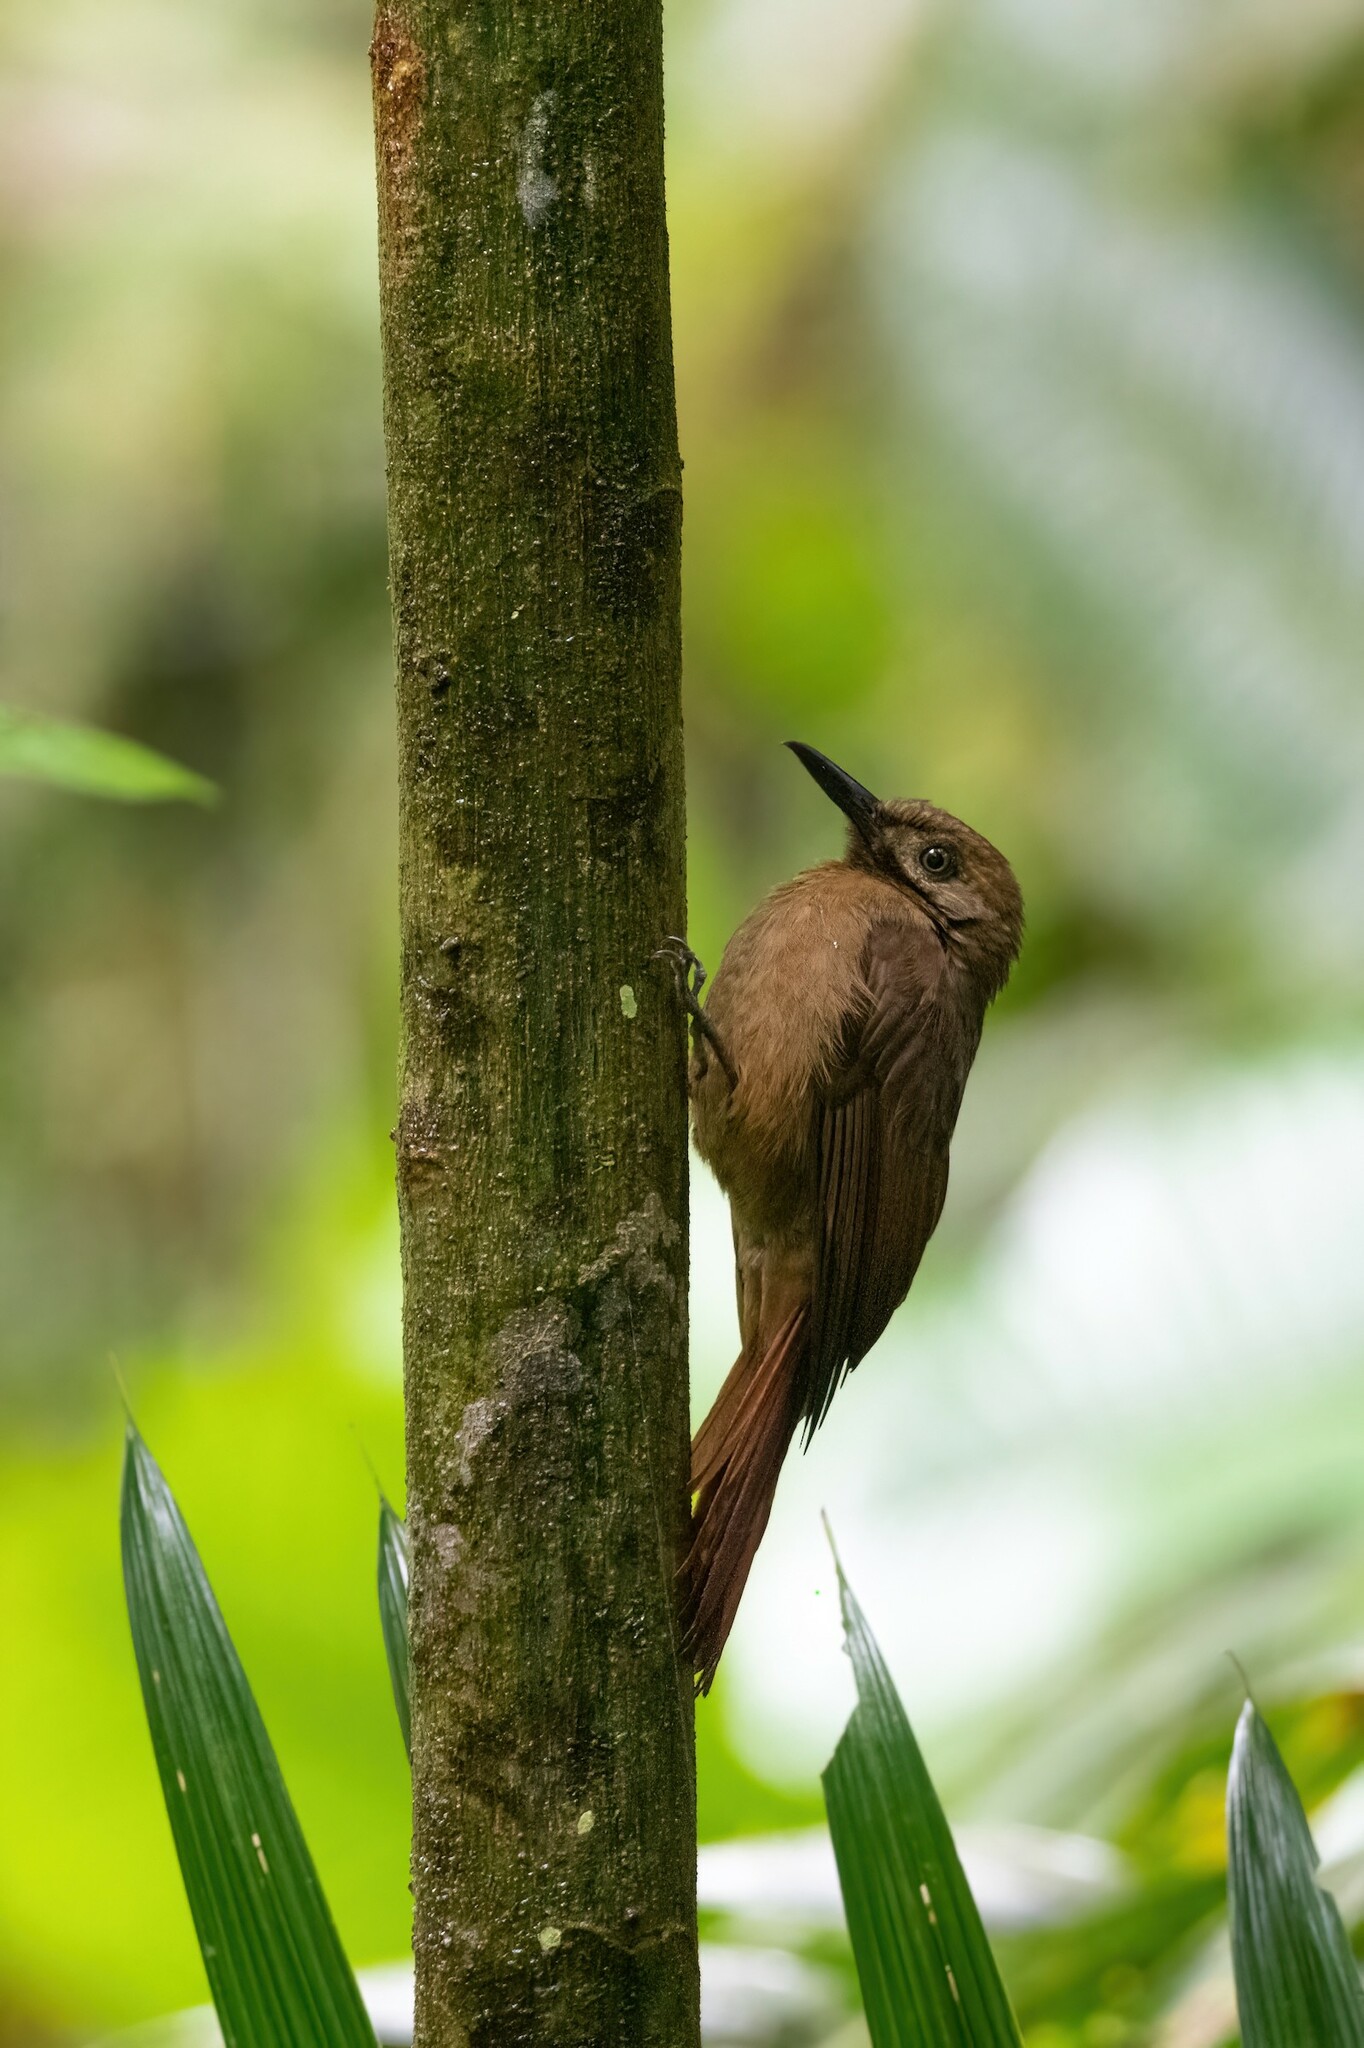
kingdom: Animalia
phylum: Chordata
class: Aves
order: Passeriformes
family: Furnariidae
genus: Dendrocincla
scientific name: Dendrocincla fuliginosa
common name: Plain-brown woodcreeper
